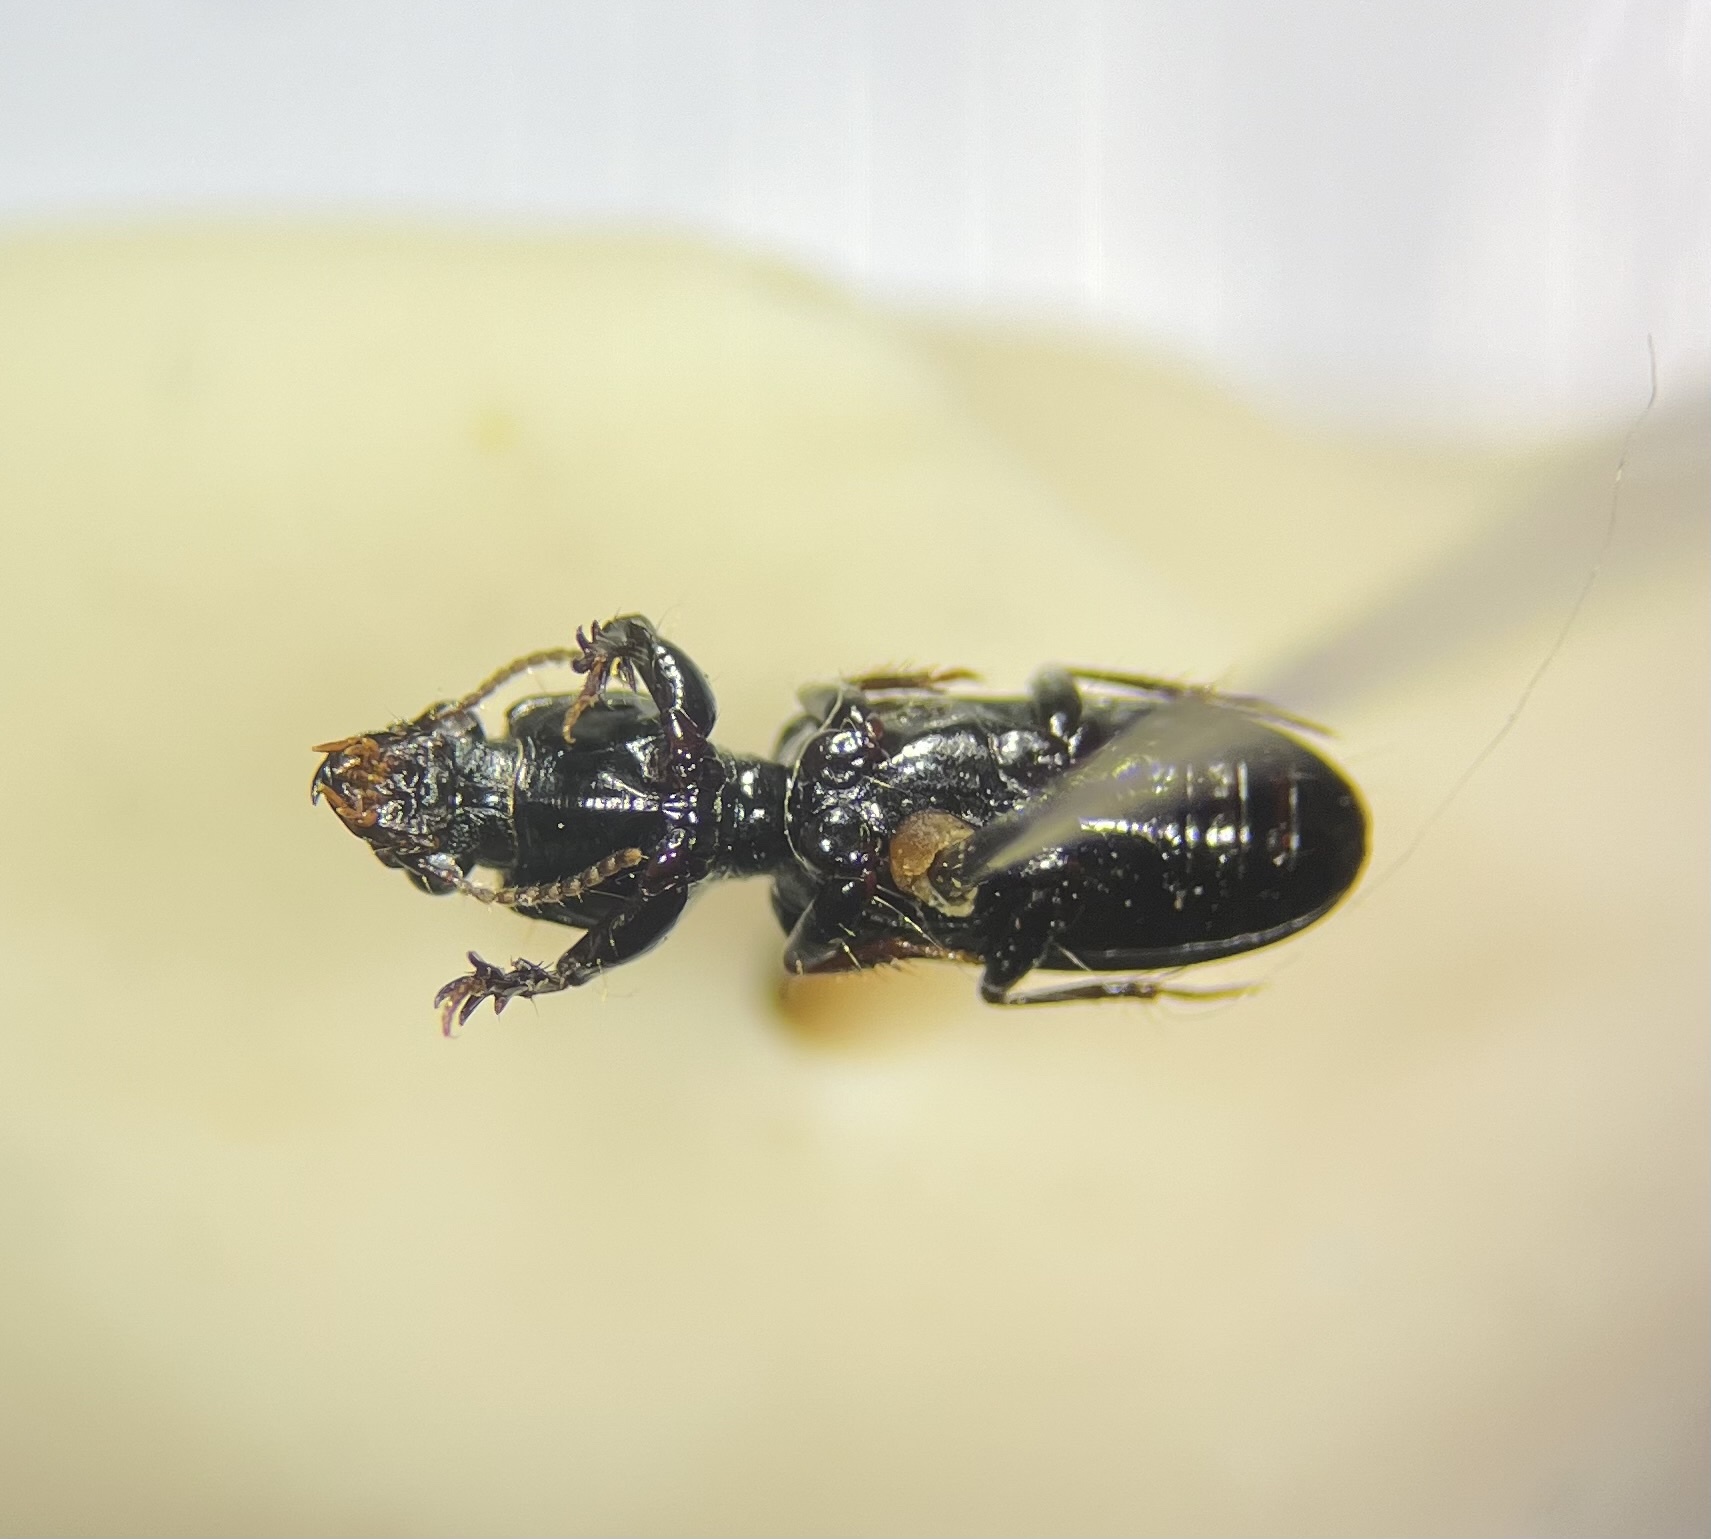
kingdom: Animalia
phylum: Arthropoda
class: Insecta
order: Coleoptera
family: Carabidae
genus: Semiclivina
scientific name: Semiclivina dentipes
